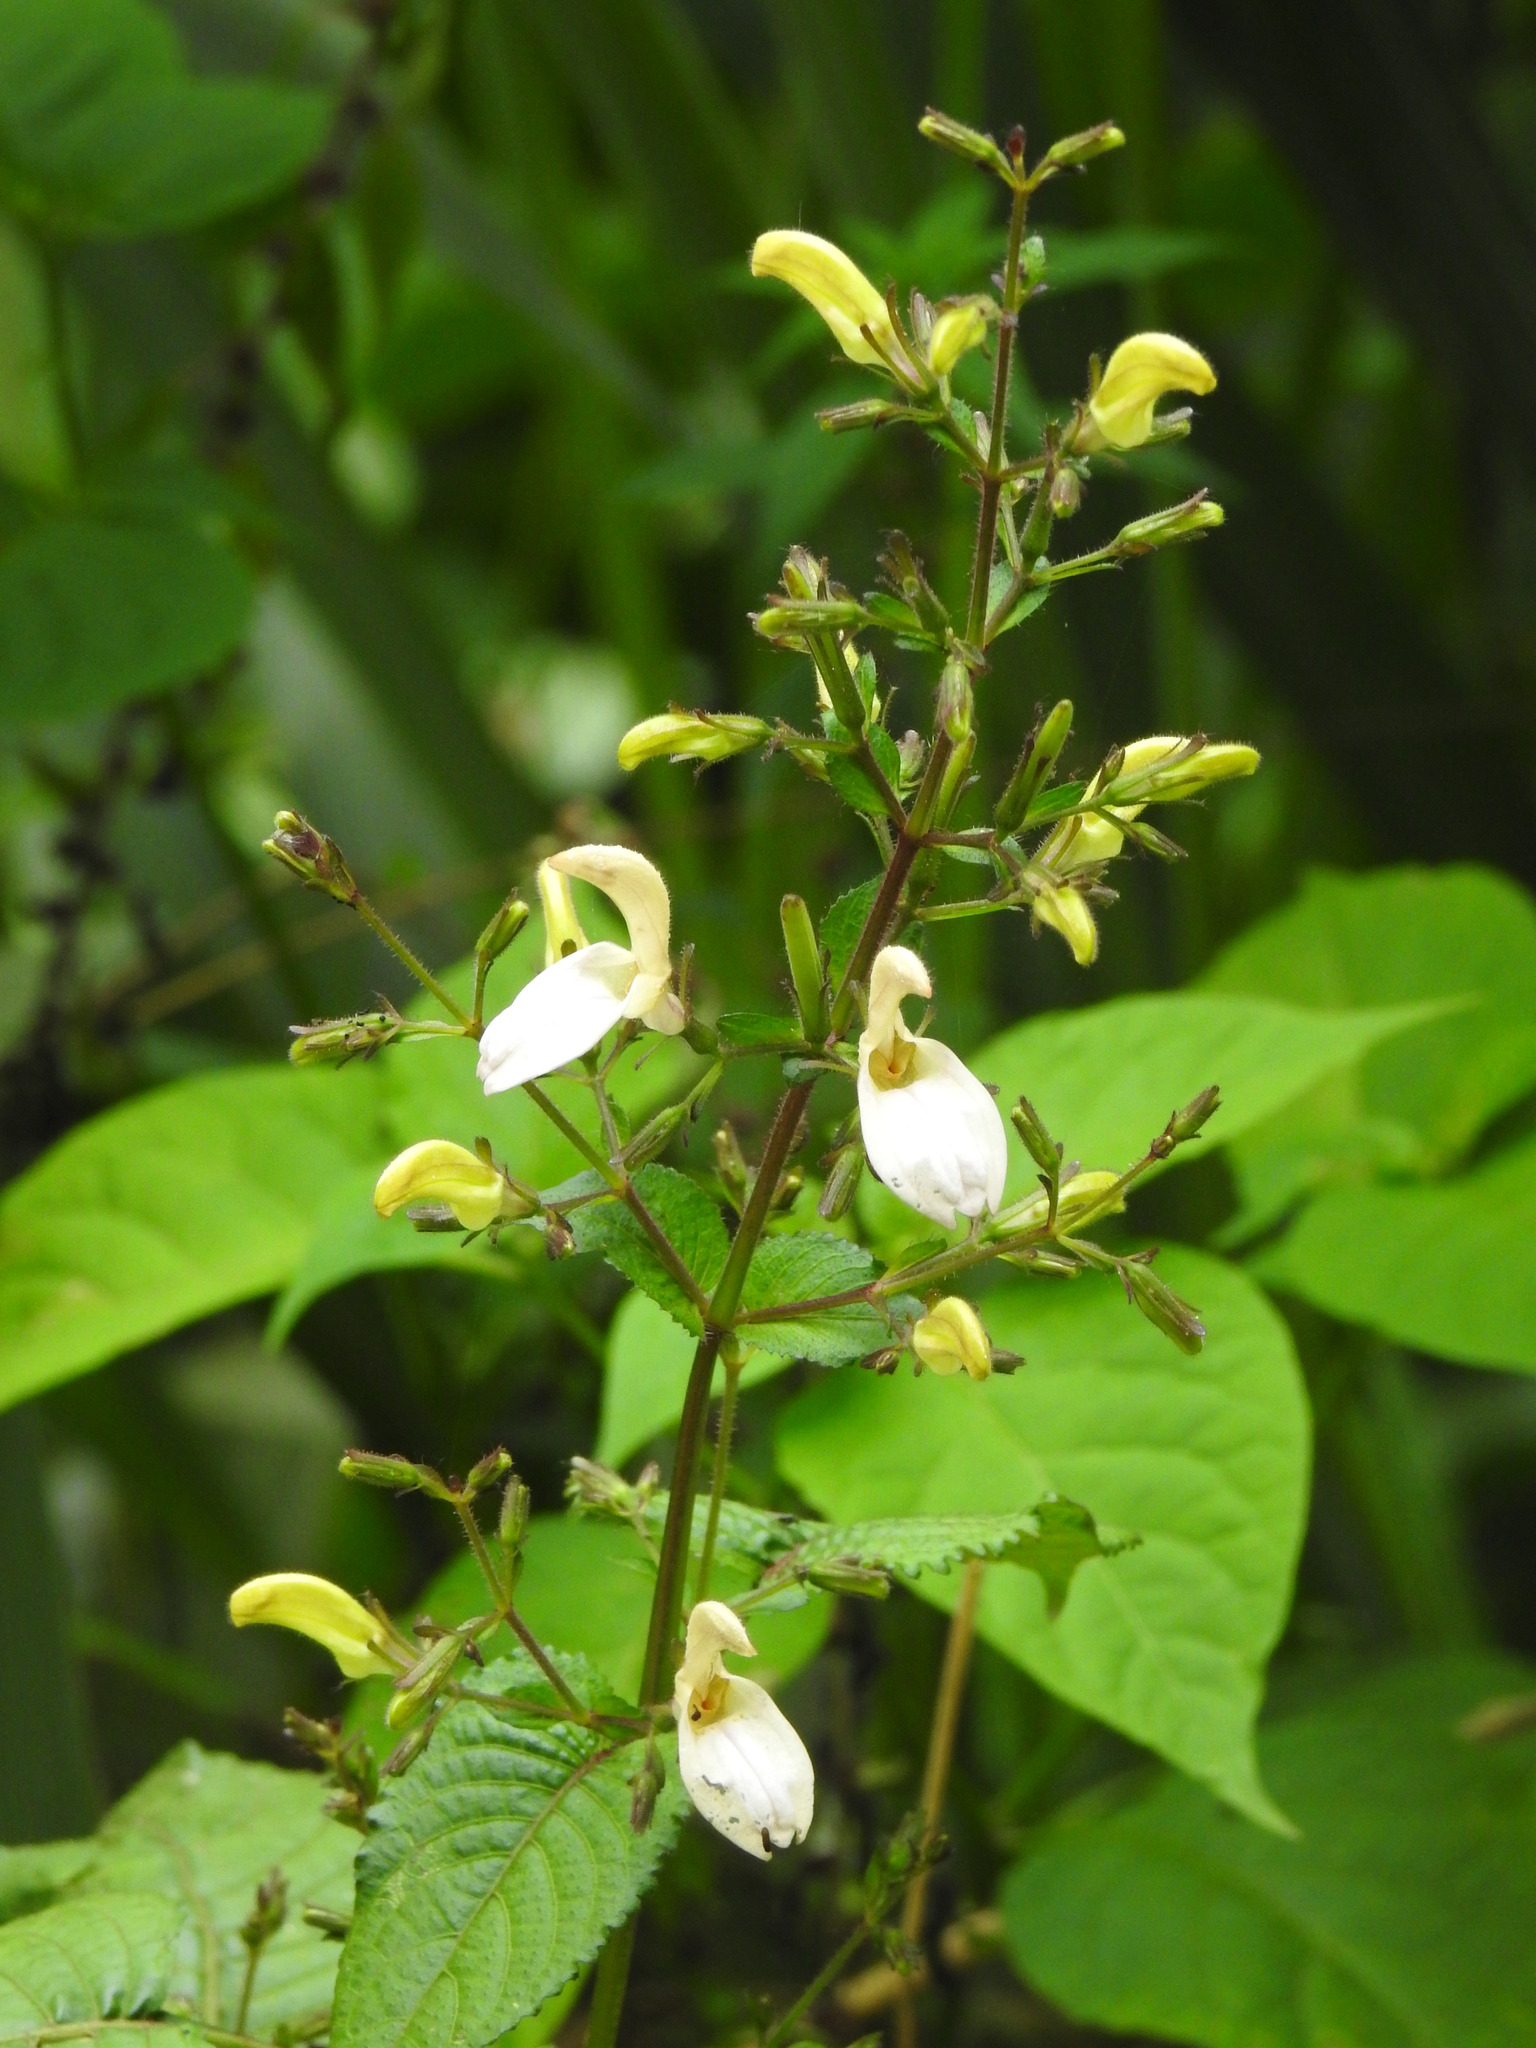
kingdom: Plantae
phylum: Tracheophyta
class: Magnoliopsida
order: Lamiales
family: Acanthaceae
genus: Brillantaisia
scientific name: Brillantaisia vogeliana
